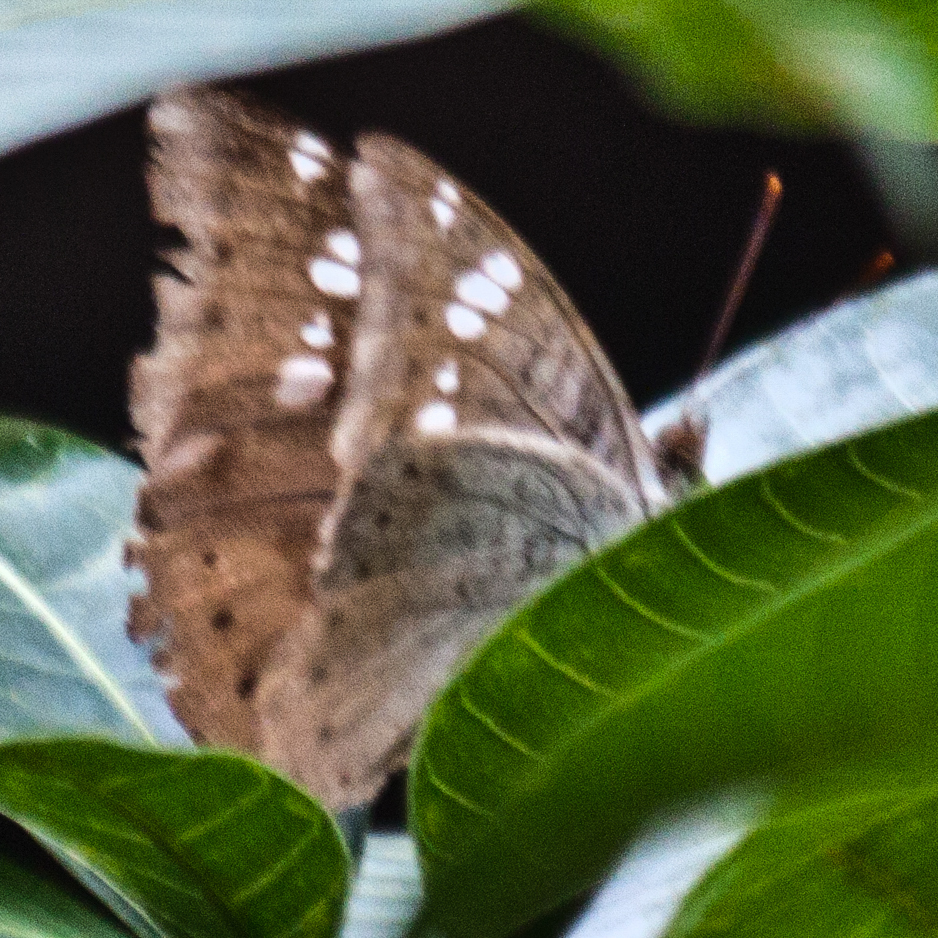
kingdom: Animalia
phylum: Arthropoda
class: Insecta
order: Lepidoptera
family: Nymphalidae
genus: Euthalia
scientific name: Euthalia aconthea
